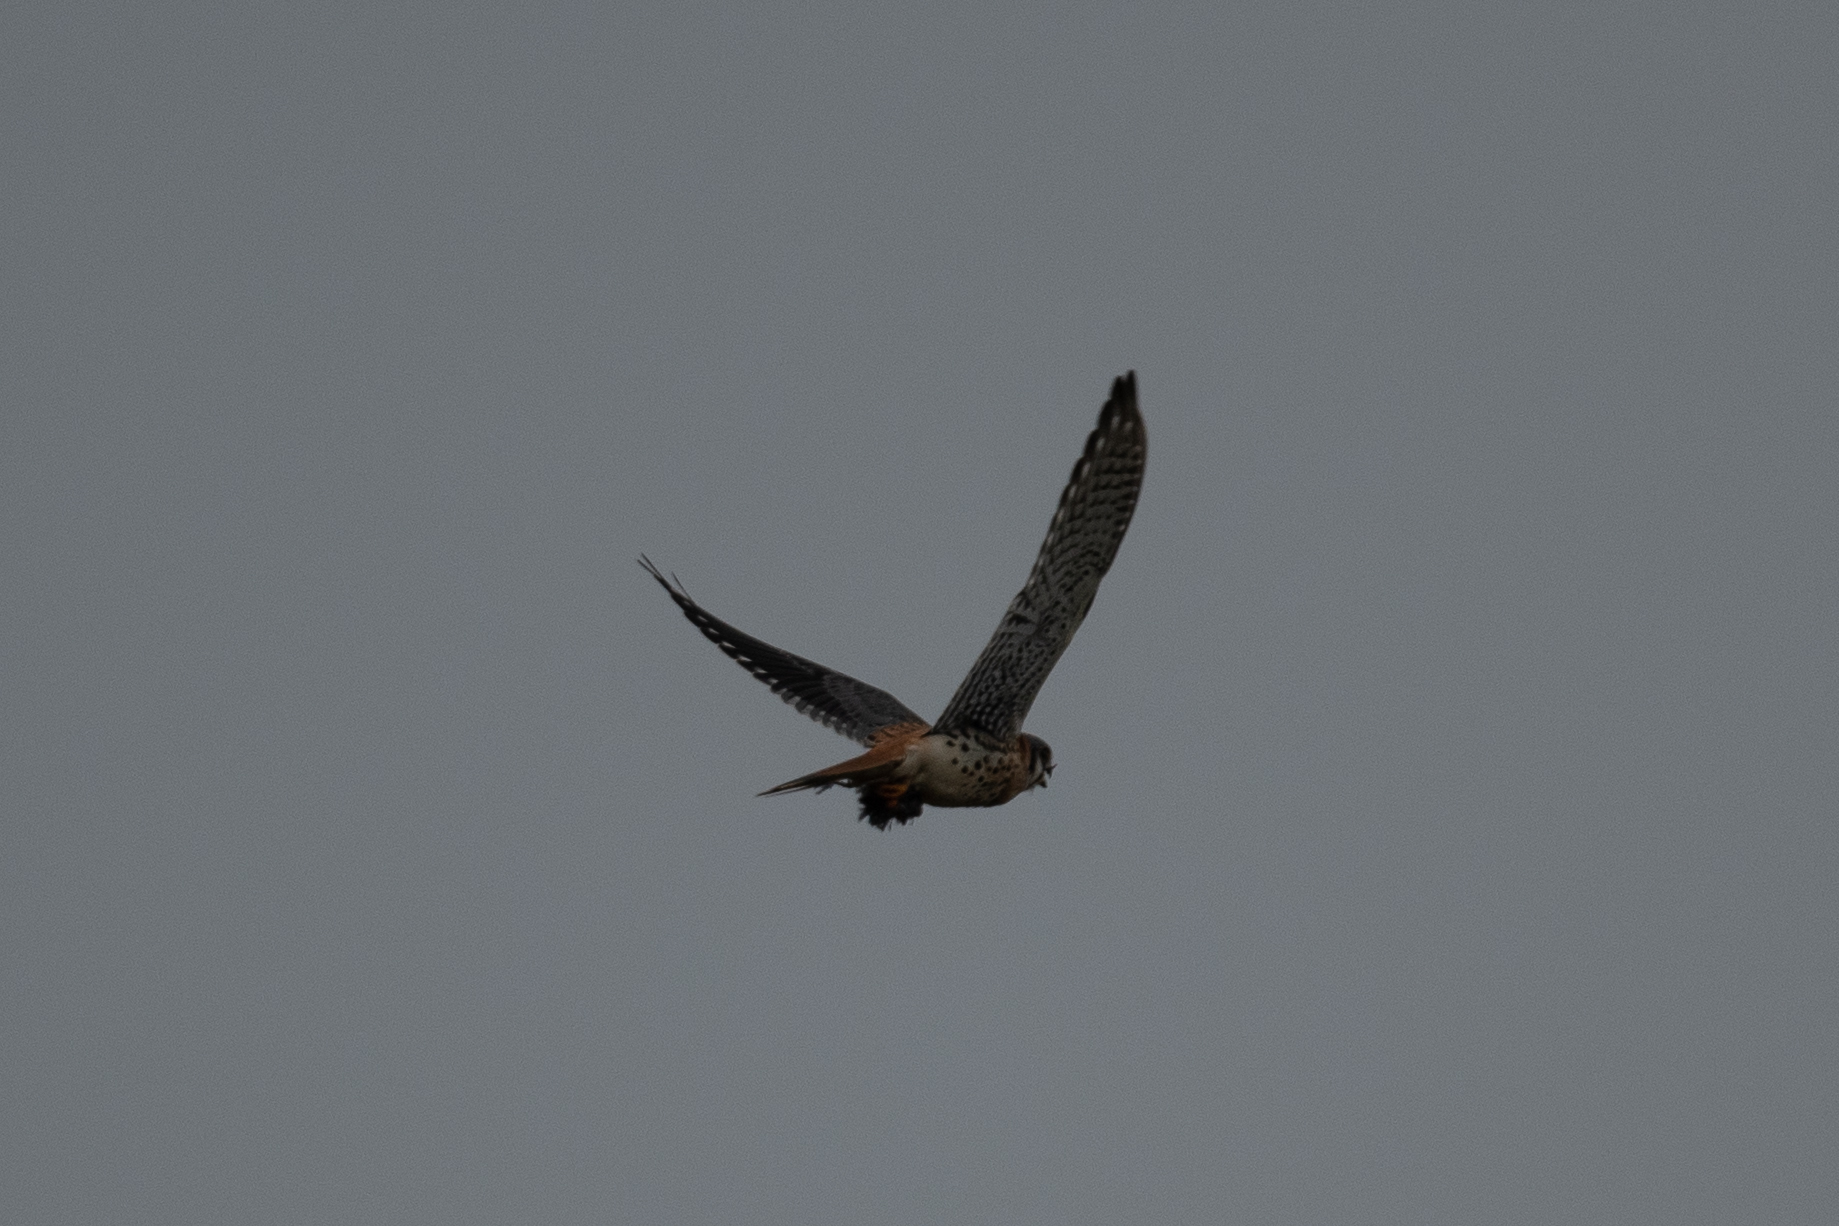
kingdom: Animalia
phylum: Chordata
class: Aves
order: Falconiformes
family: Falconidae
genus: Falco
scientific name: Falco sparverius
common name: American kestrel
